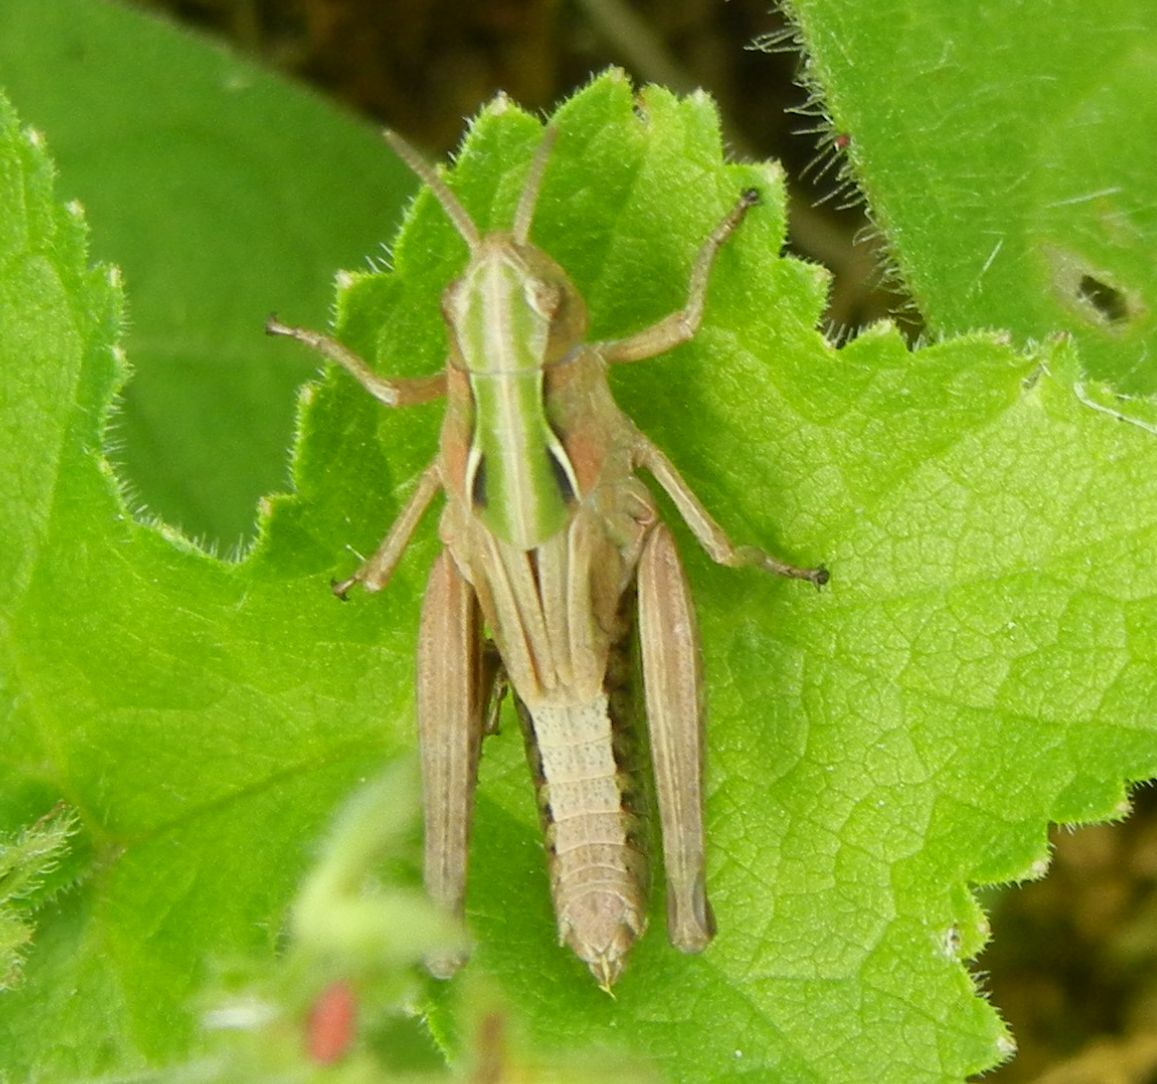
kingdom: Animalia
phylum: Arthropoda
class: Insecta
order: Orthoptera
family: Acrididae
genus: Omocestus
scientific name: Omocestus viridulus
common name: Common green grasshopper
